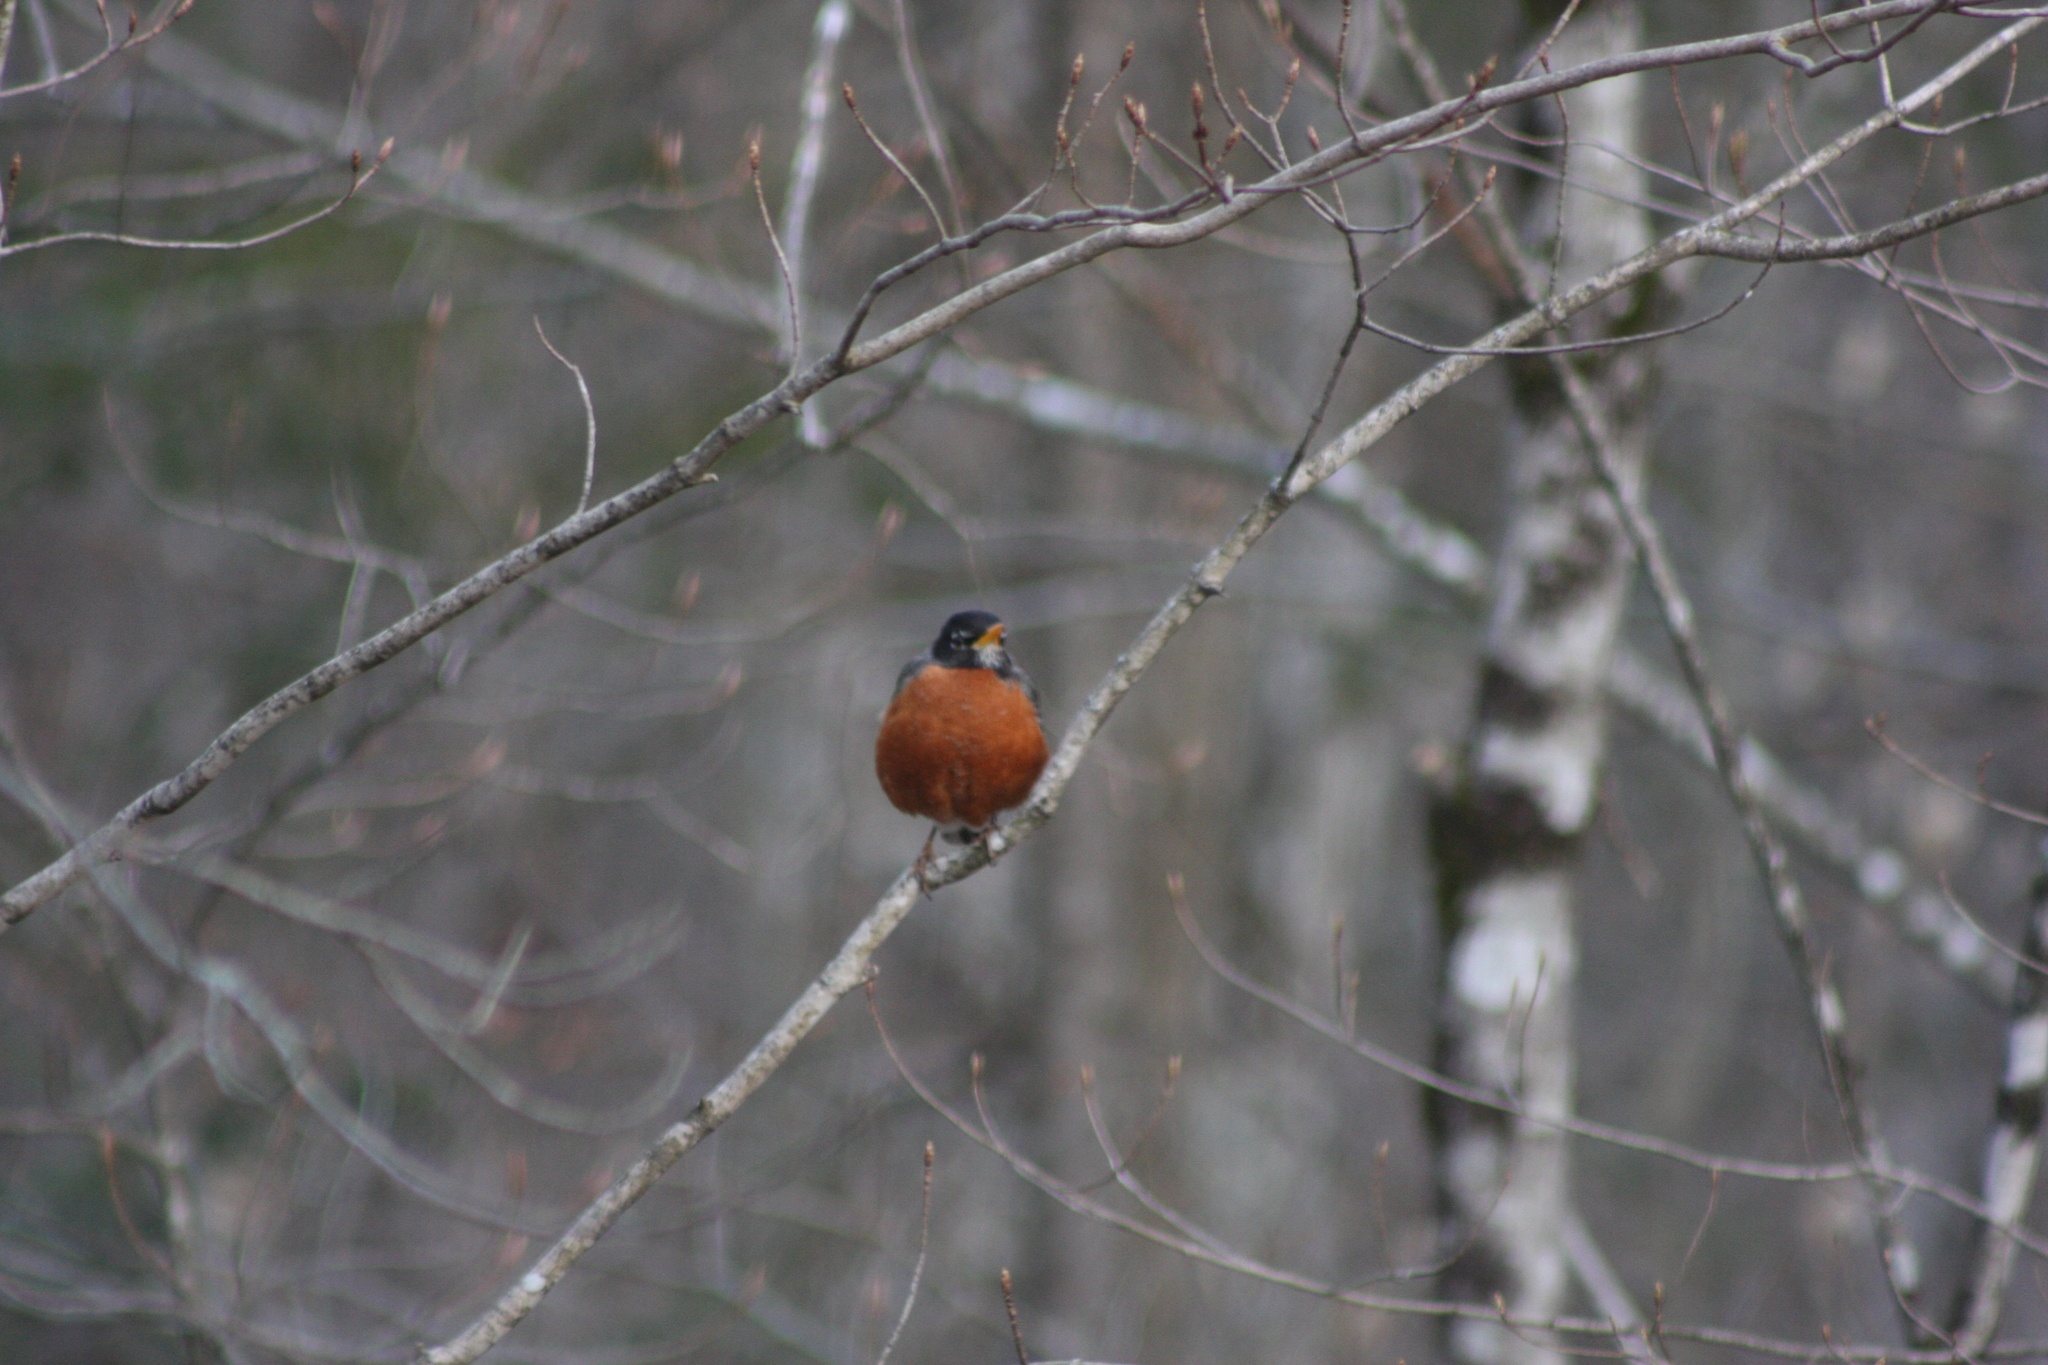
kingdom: Animalia
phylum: Chordata
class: Aves
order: Passeriformes
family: Turdidae
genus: Turdus
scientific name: Turdus migratorius
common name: American robin
